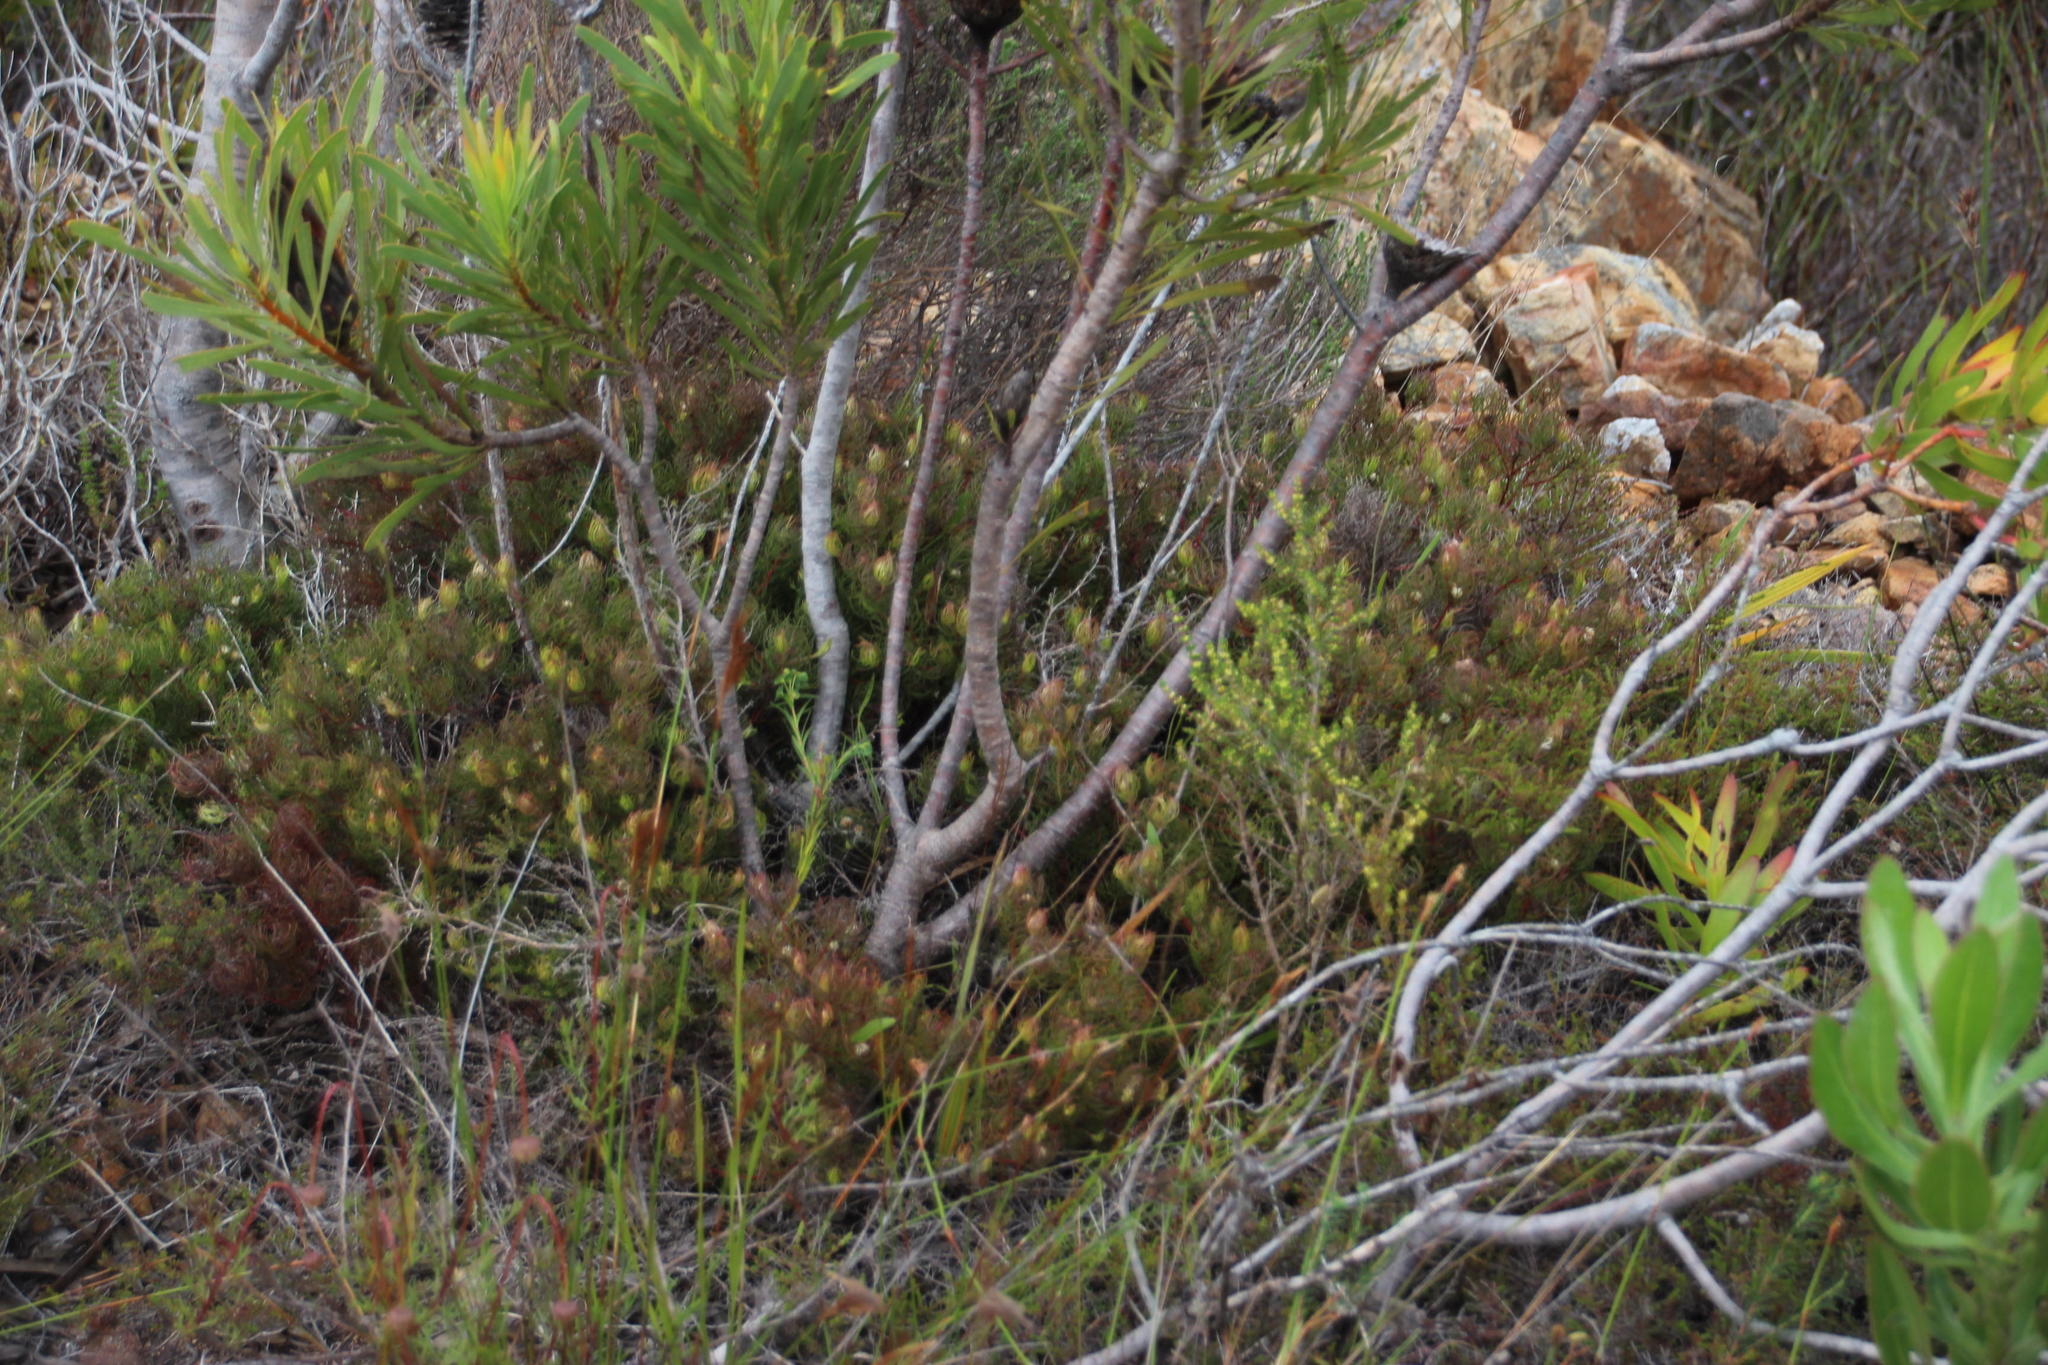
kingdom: Plantae
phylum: Tracheophyta
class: Magnoliopsida
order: Proteales
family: Proteaceae
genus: Serruria
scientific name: Serruria inconspicua
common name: Cryptic spiderhead
